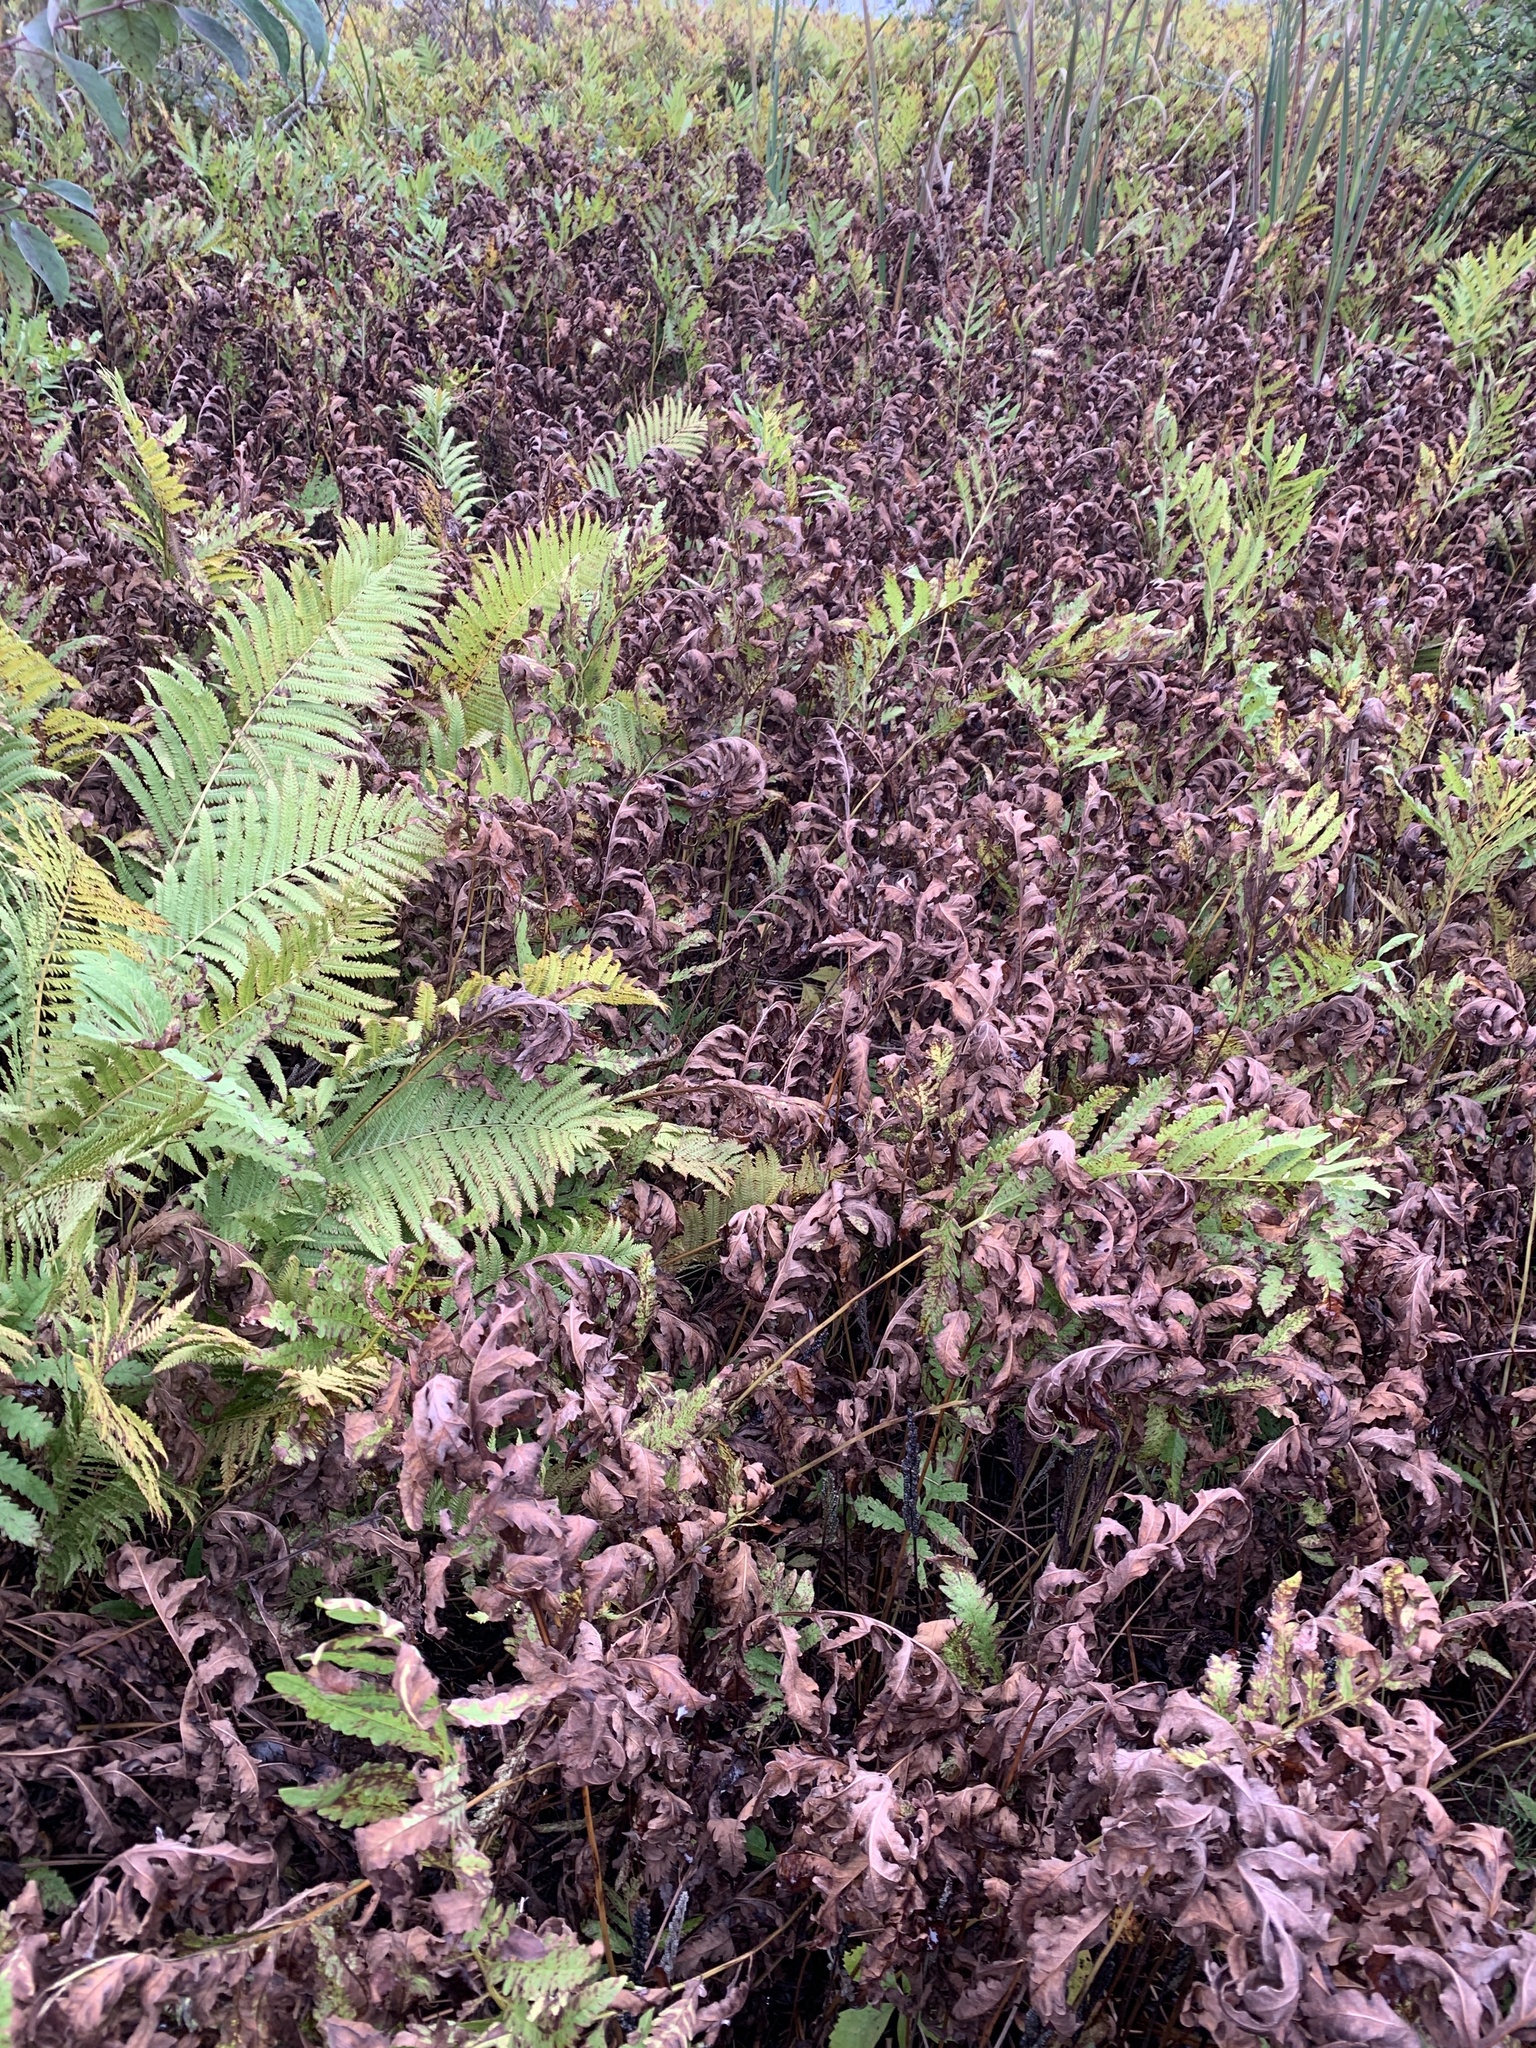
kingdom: Plantae
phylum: Tracheophyta
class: Polypodiopsida
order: Polypodiales
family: Onocleaceae
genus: Onoclea
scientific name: Onoclea sensibilis
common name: Sensitive fern
